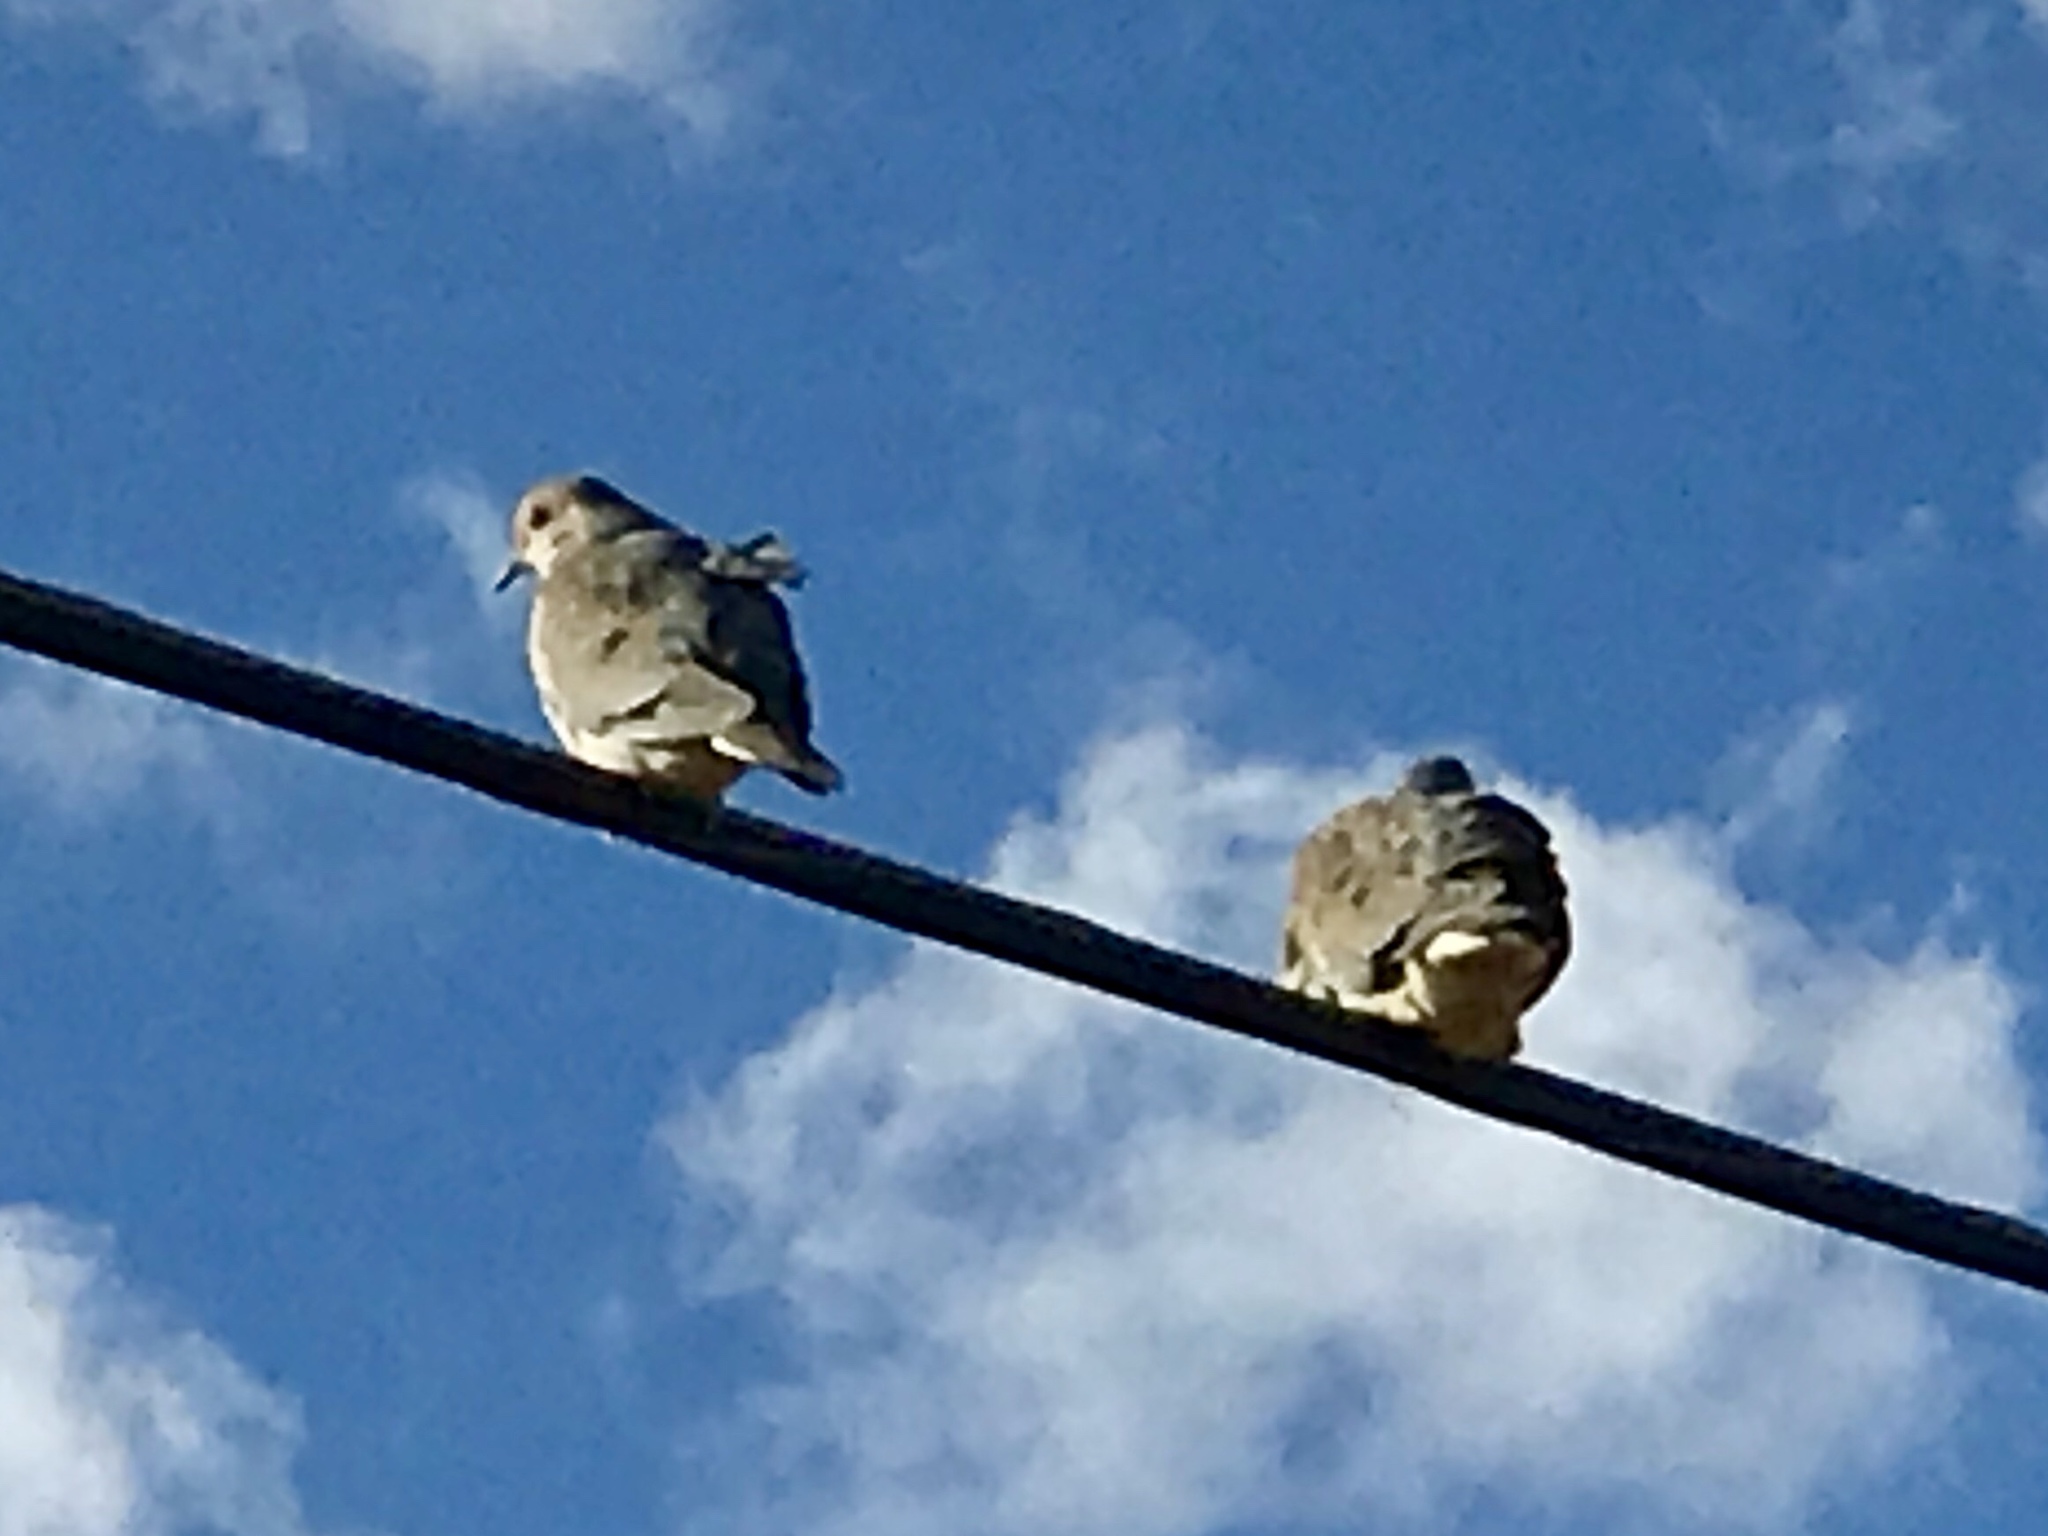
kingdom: Animalia
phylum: Chordata
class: Aves
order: Columbiformes
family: Columbidae
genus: Zenaida
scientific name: Zenaida macroura
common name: Mourning dove
